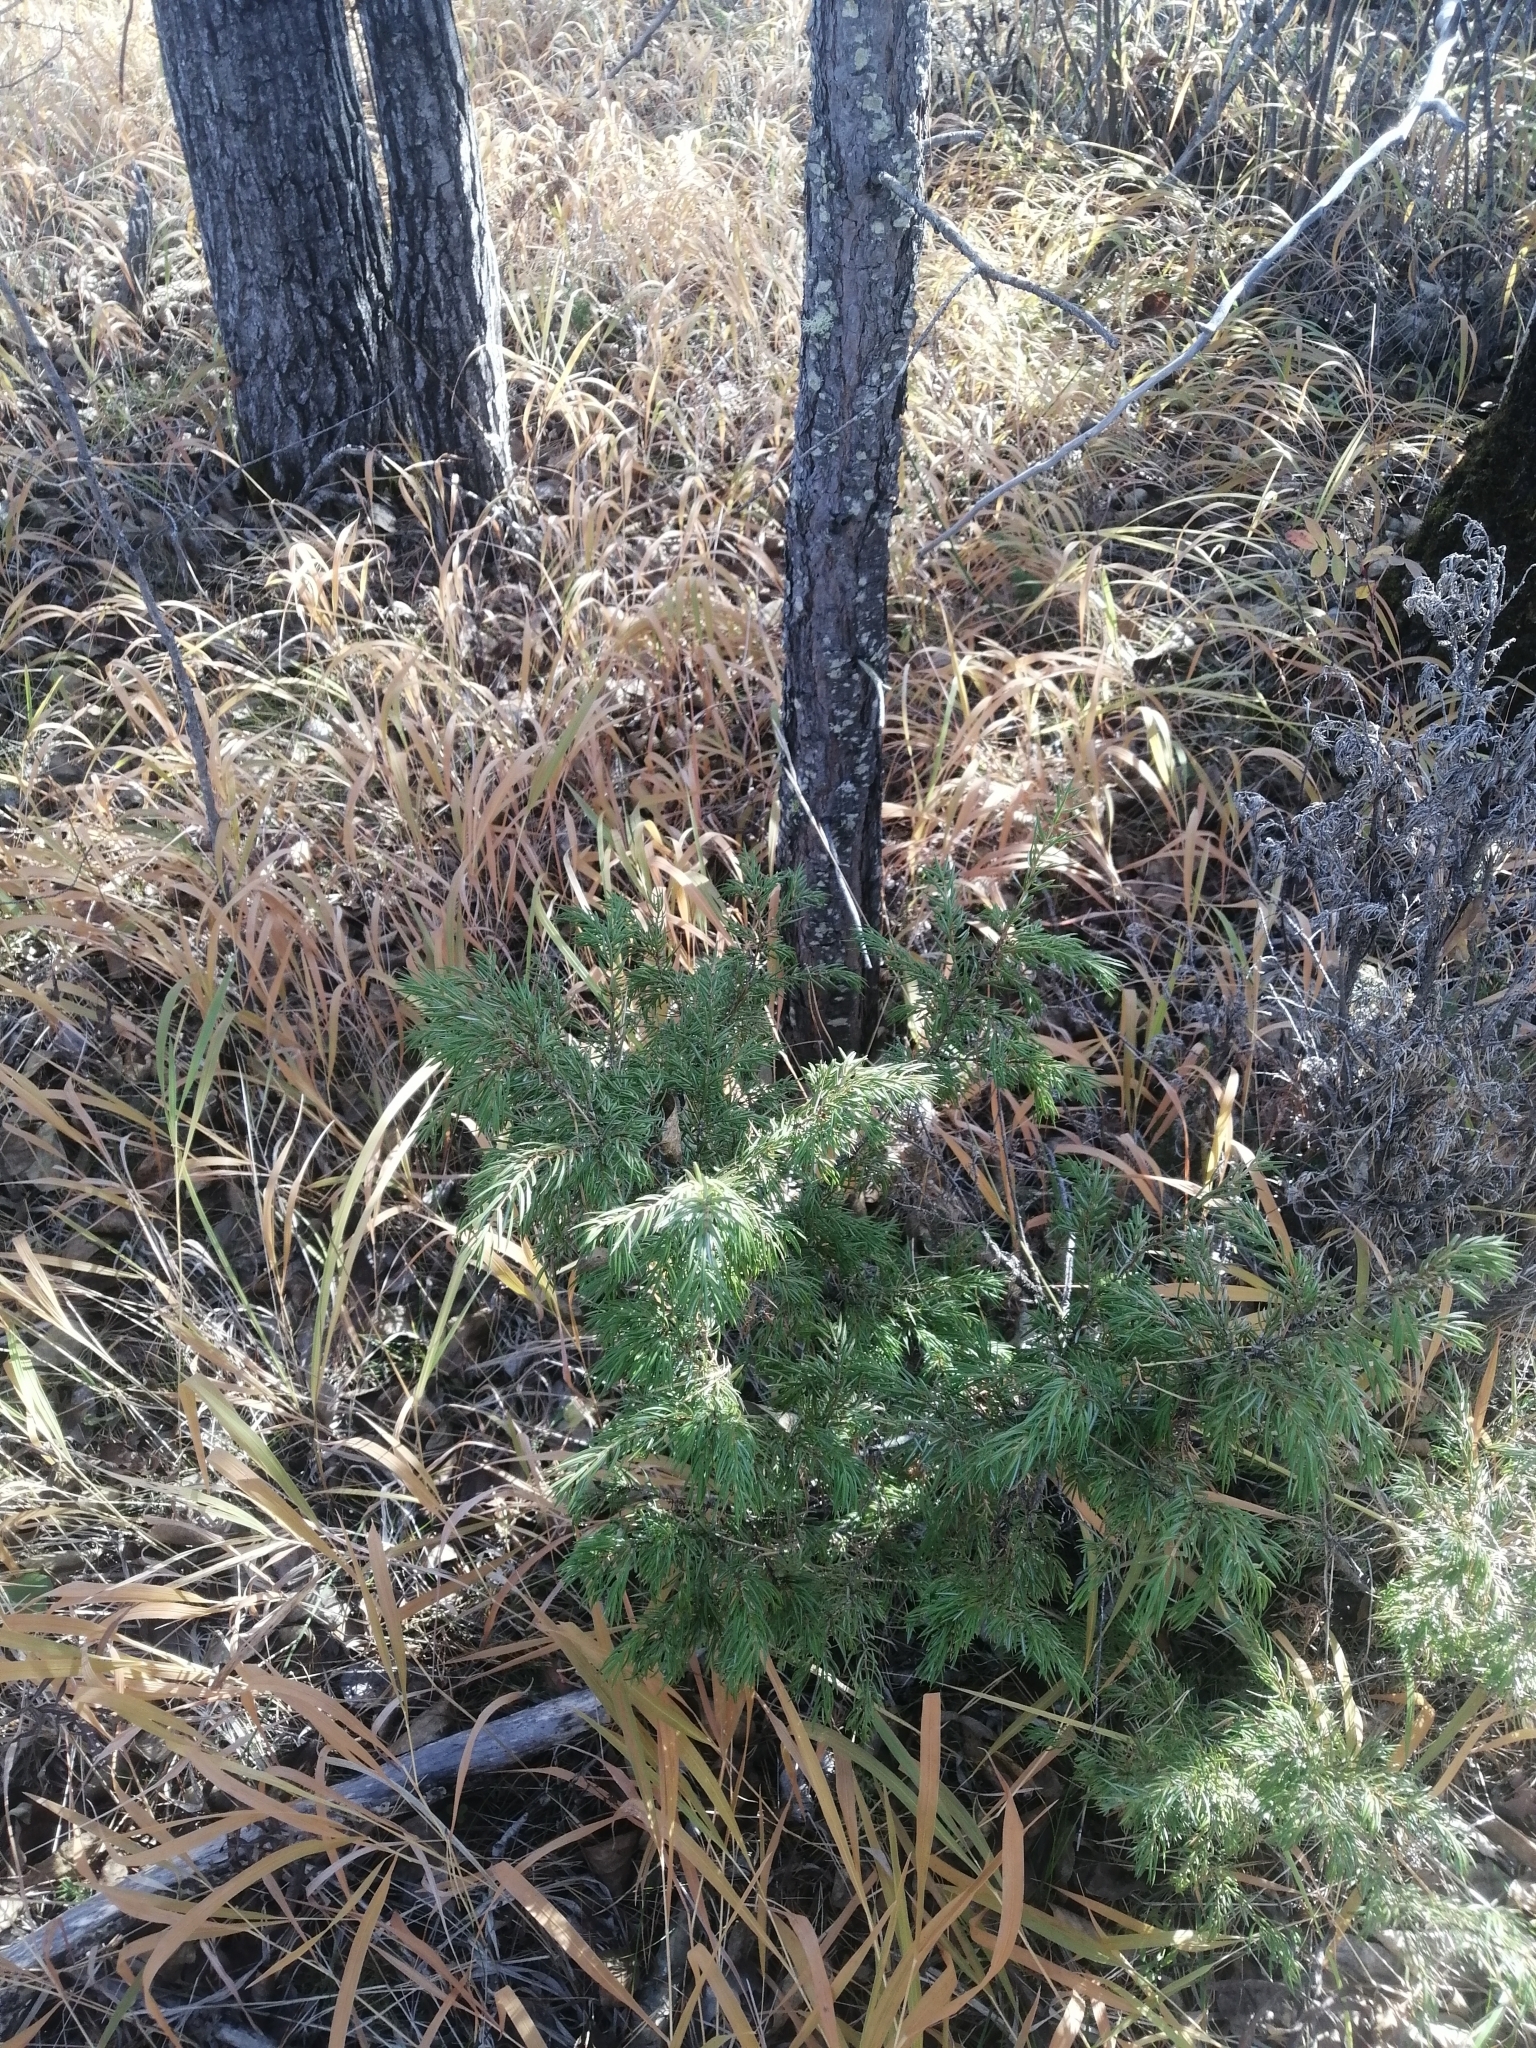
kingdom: Plantae
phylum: Tracheophyta
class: Pinopsida
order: Pinales
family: Cupressaceae
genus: Juniperus
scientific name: Juniperus communis
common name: Common juniper
